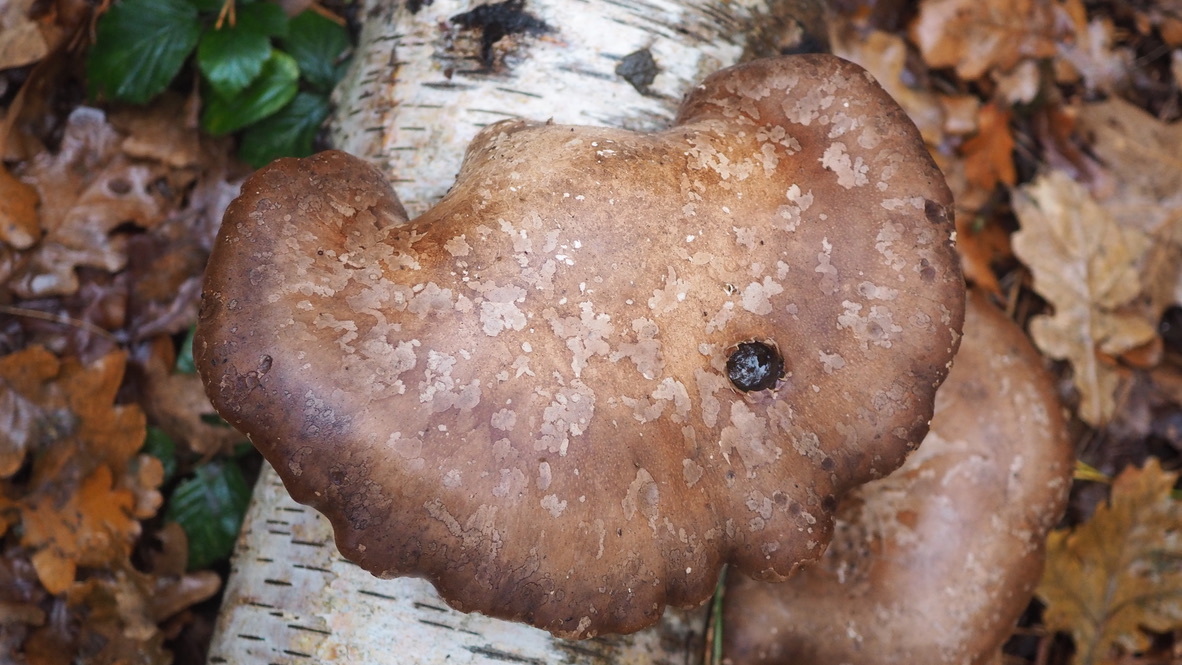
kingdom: Fungi
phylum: Basidiomycota
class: Agaricomycetes
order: Polyporales
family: Fomitopsidaceae
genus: Fomitopsis
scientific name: Fomitopsis betulina
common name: Birch polypore
